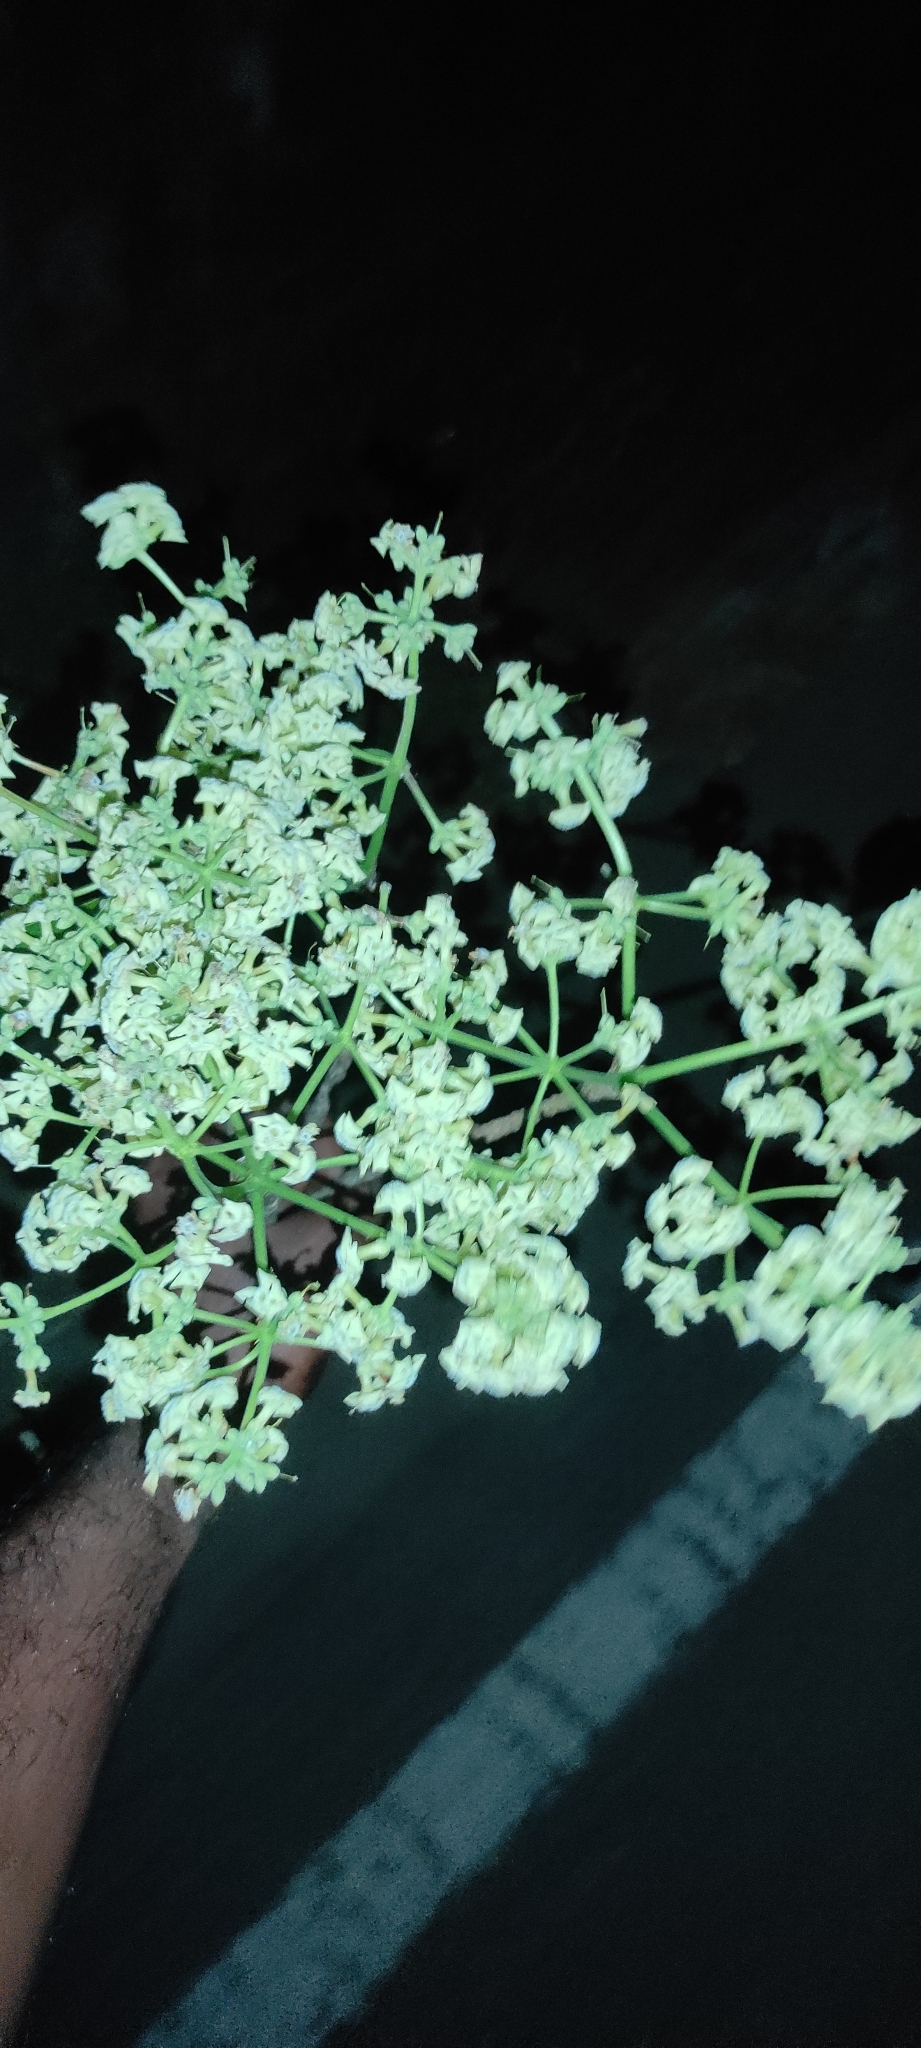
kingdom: Plantae
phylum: Tracheophyta
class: Magnoliopsida
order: Gentianales
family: Apocynaceae
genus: Alstonia
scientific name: Alstonia scholaris
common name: White cheesewood
